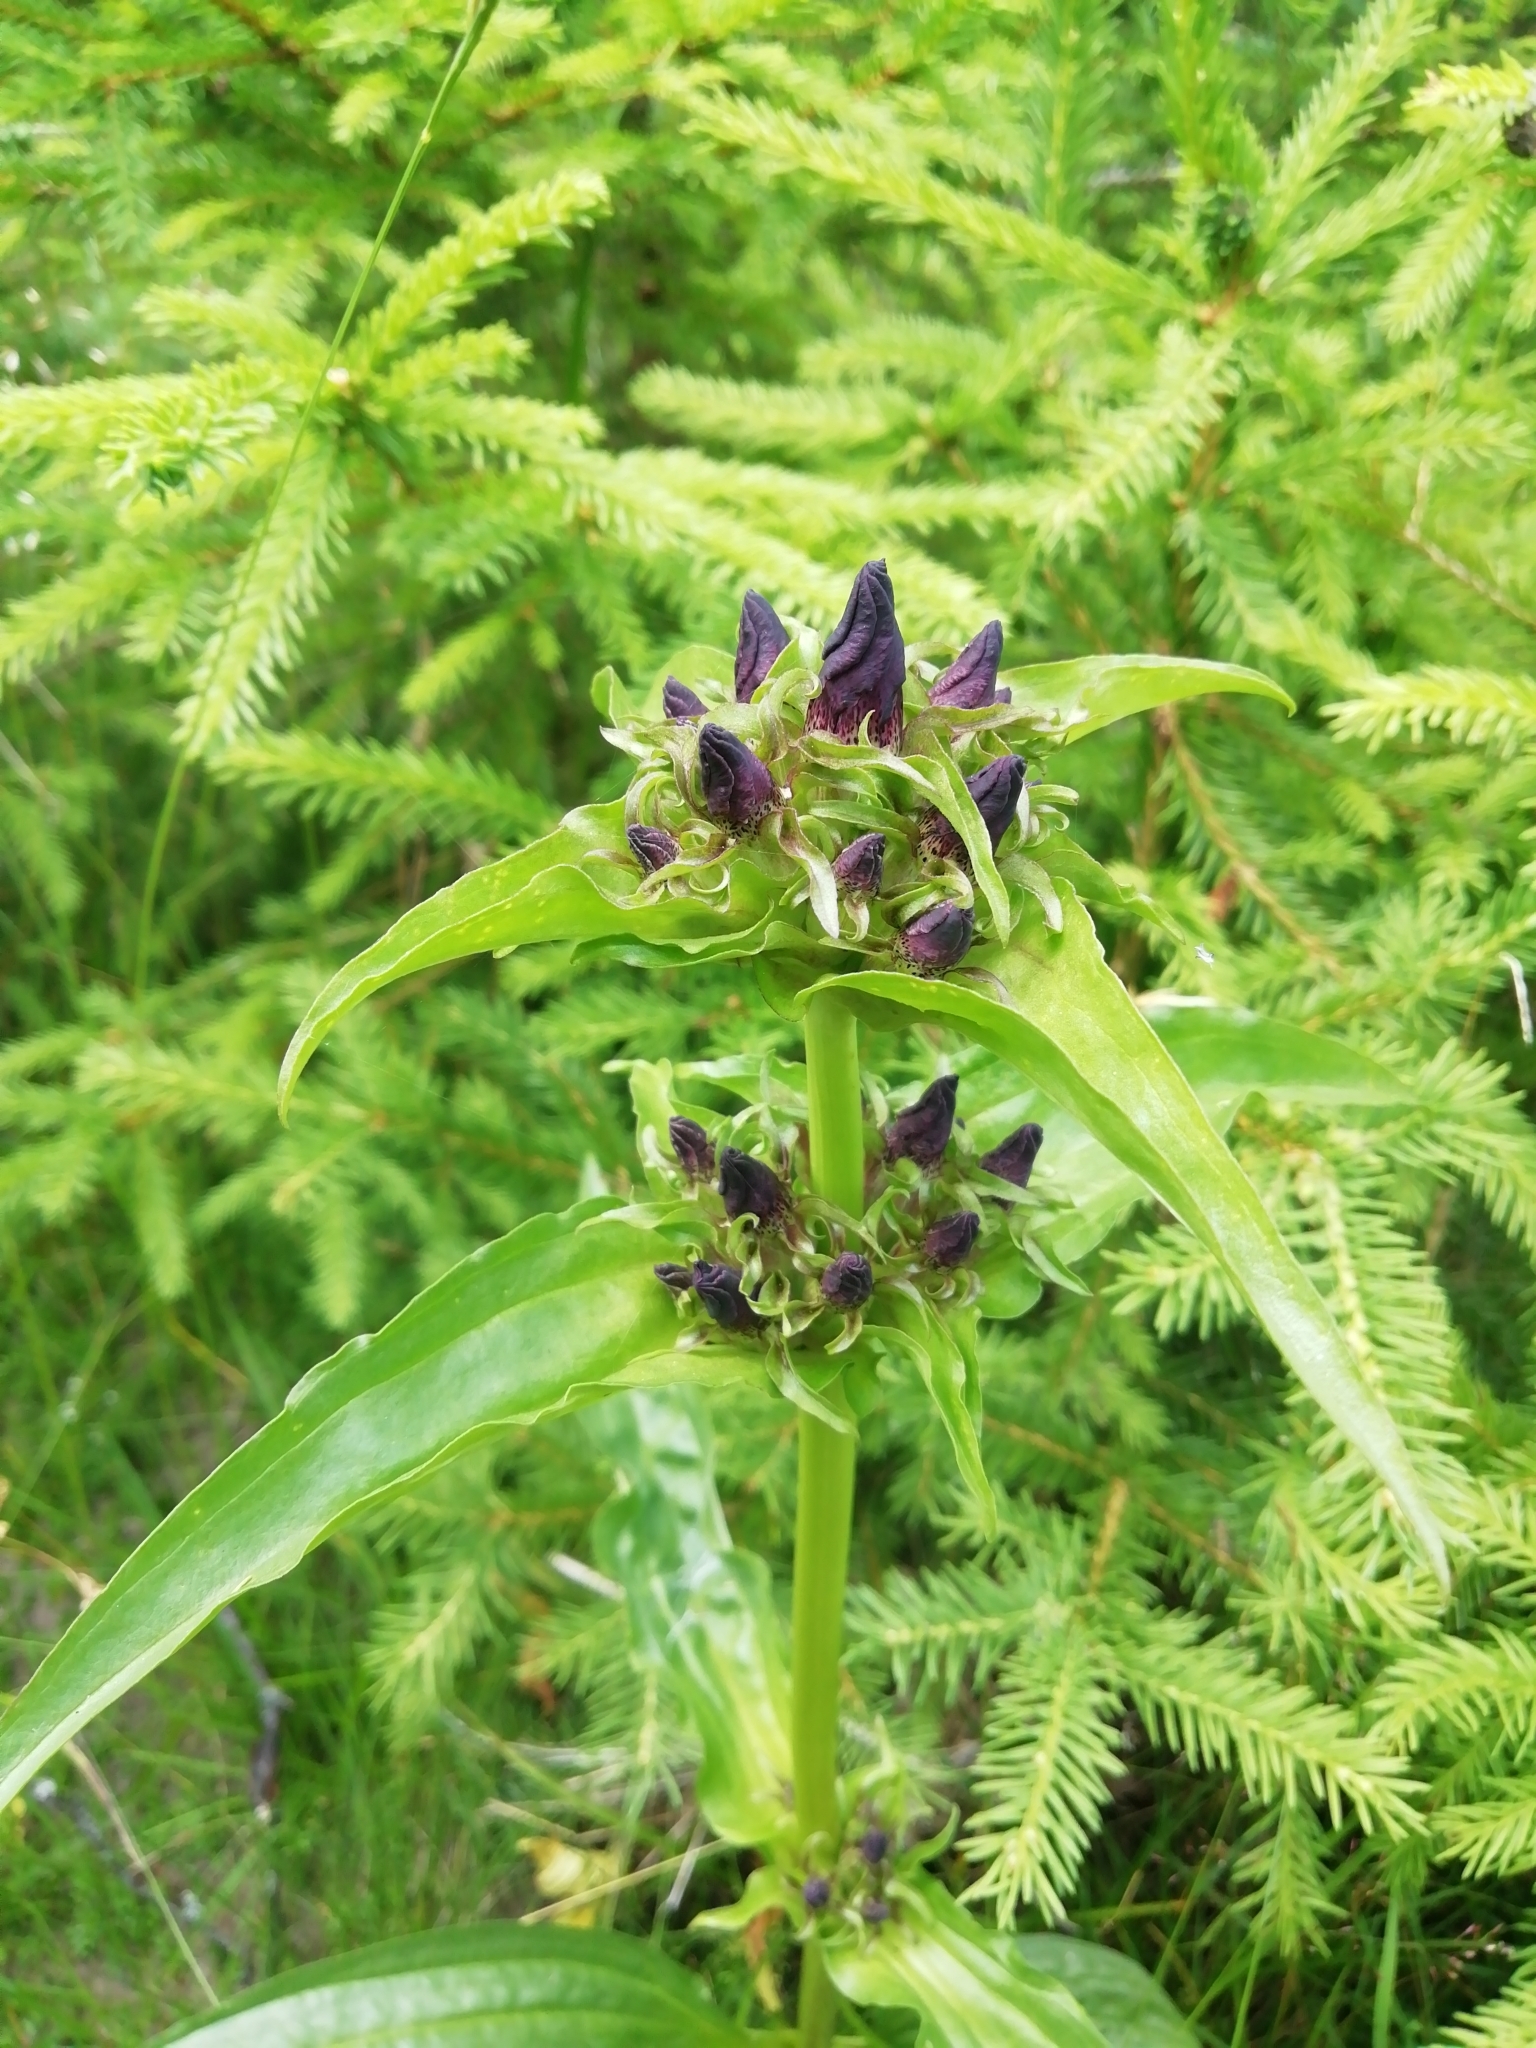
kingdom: Plantae
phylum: Tracheophyta
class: Magnoliopsida
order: Gentianales
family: Gentianaceae
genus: Gentiana
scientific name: Gentiana pannonica
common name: Hungarian gentian
